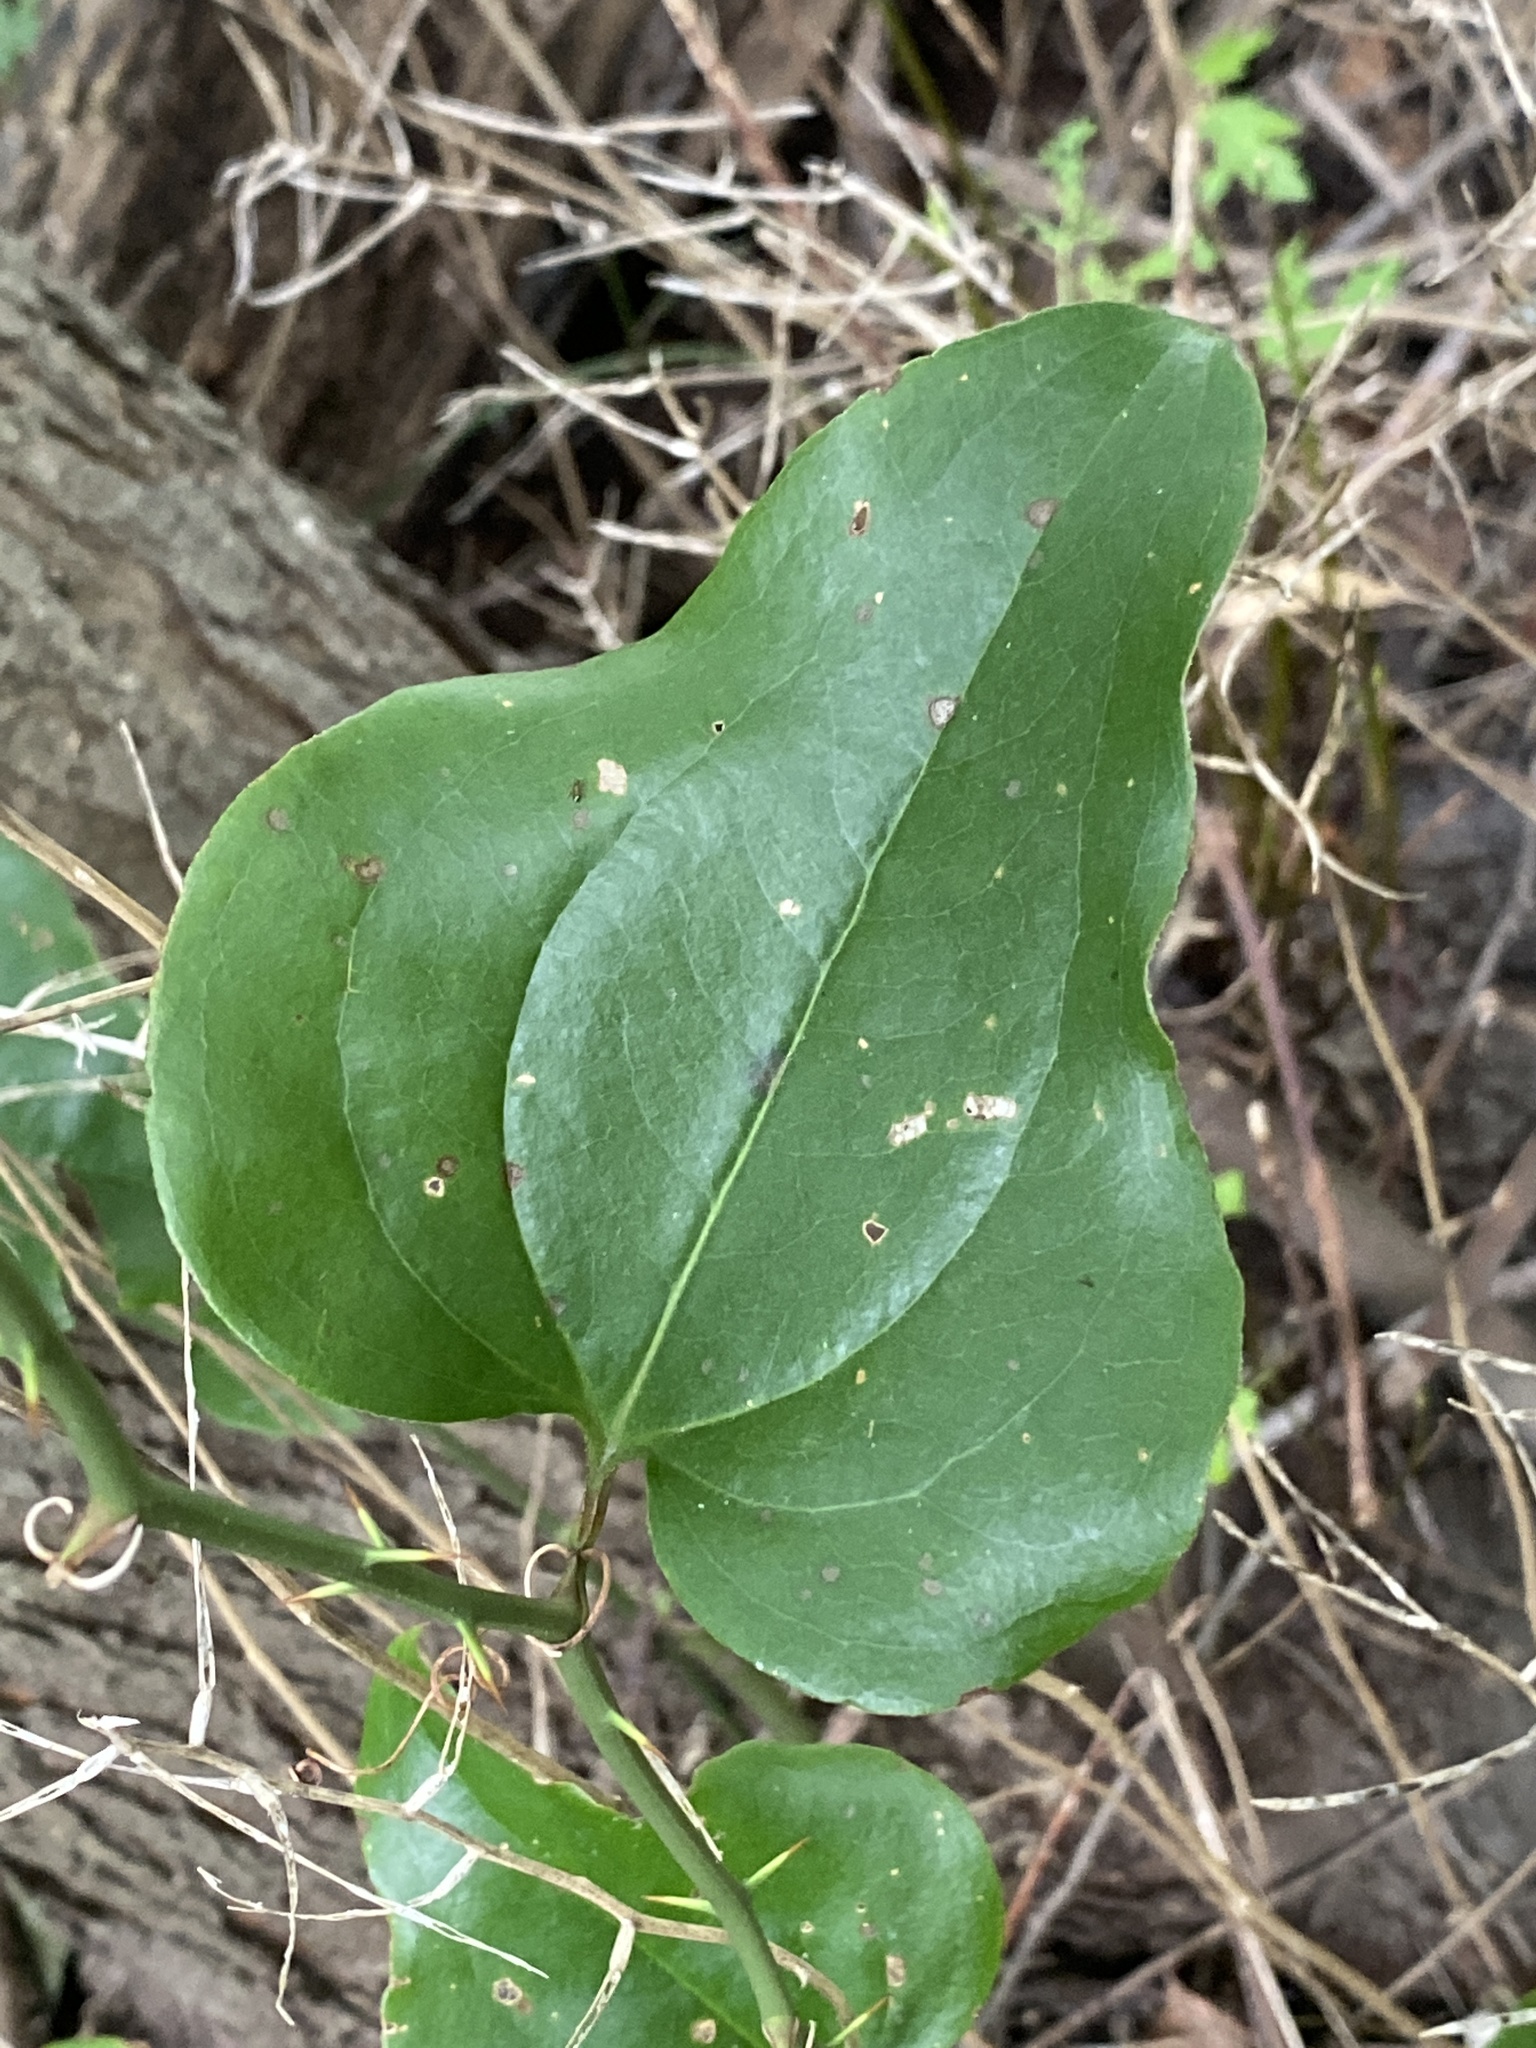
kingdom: Plantae
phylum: Tracheophyta
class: Liliopsida
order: Liliales
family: Smilacaceae
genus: Smilax
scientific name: Smilax rotundifolia
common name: Bullbriar
